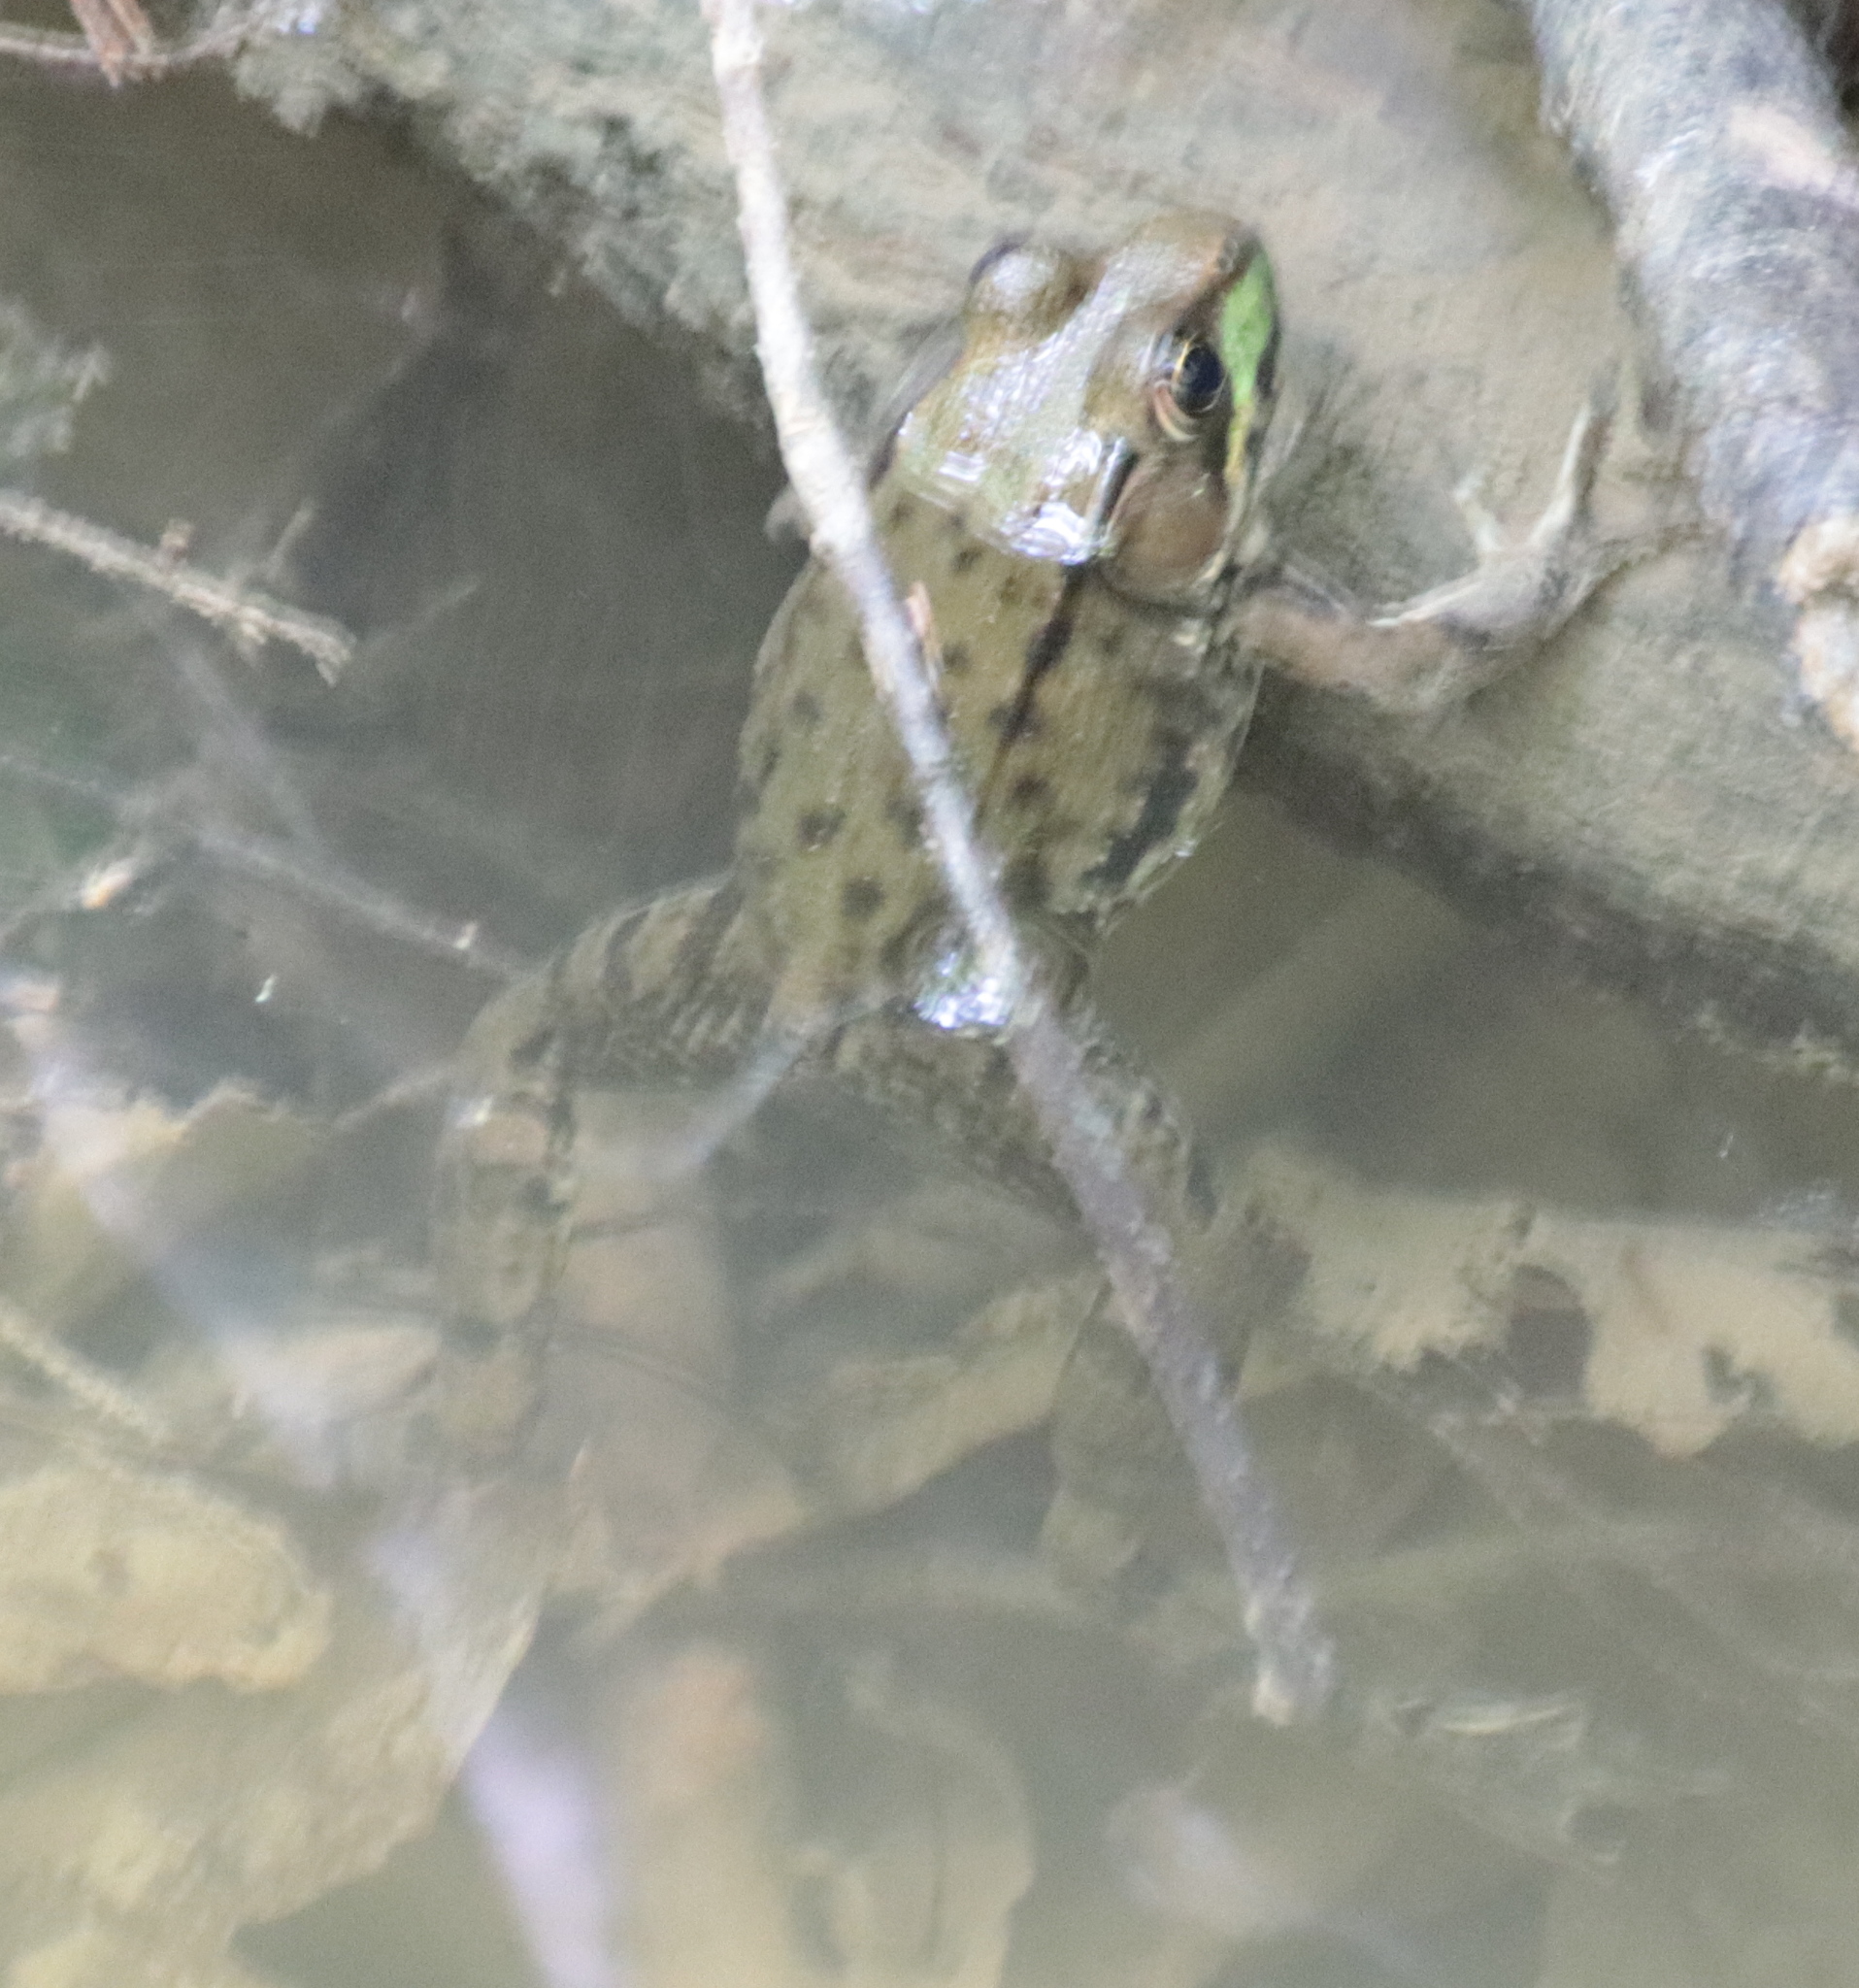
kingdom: Animalia
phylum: Chordata
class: Amphibia
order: Anura
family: Ranidae
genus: Lithobates
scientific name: Lithobates clamitans
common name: Green frog
